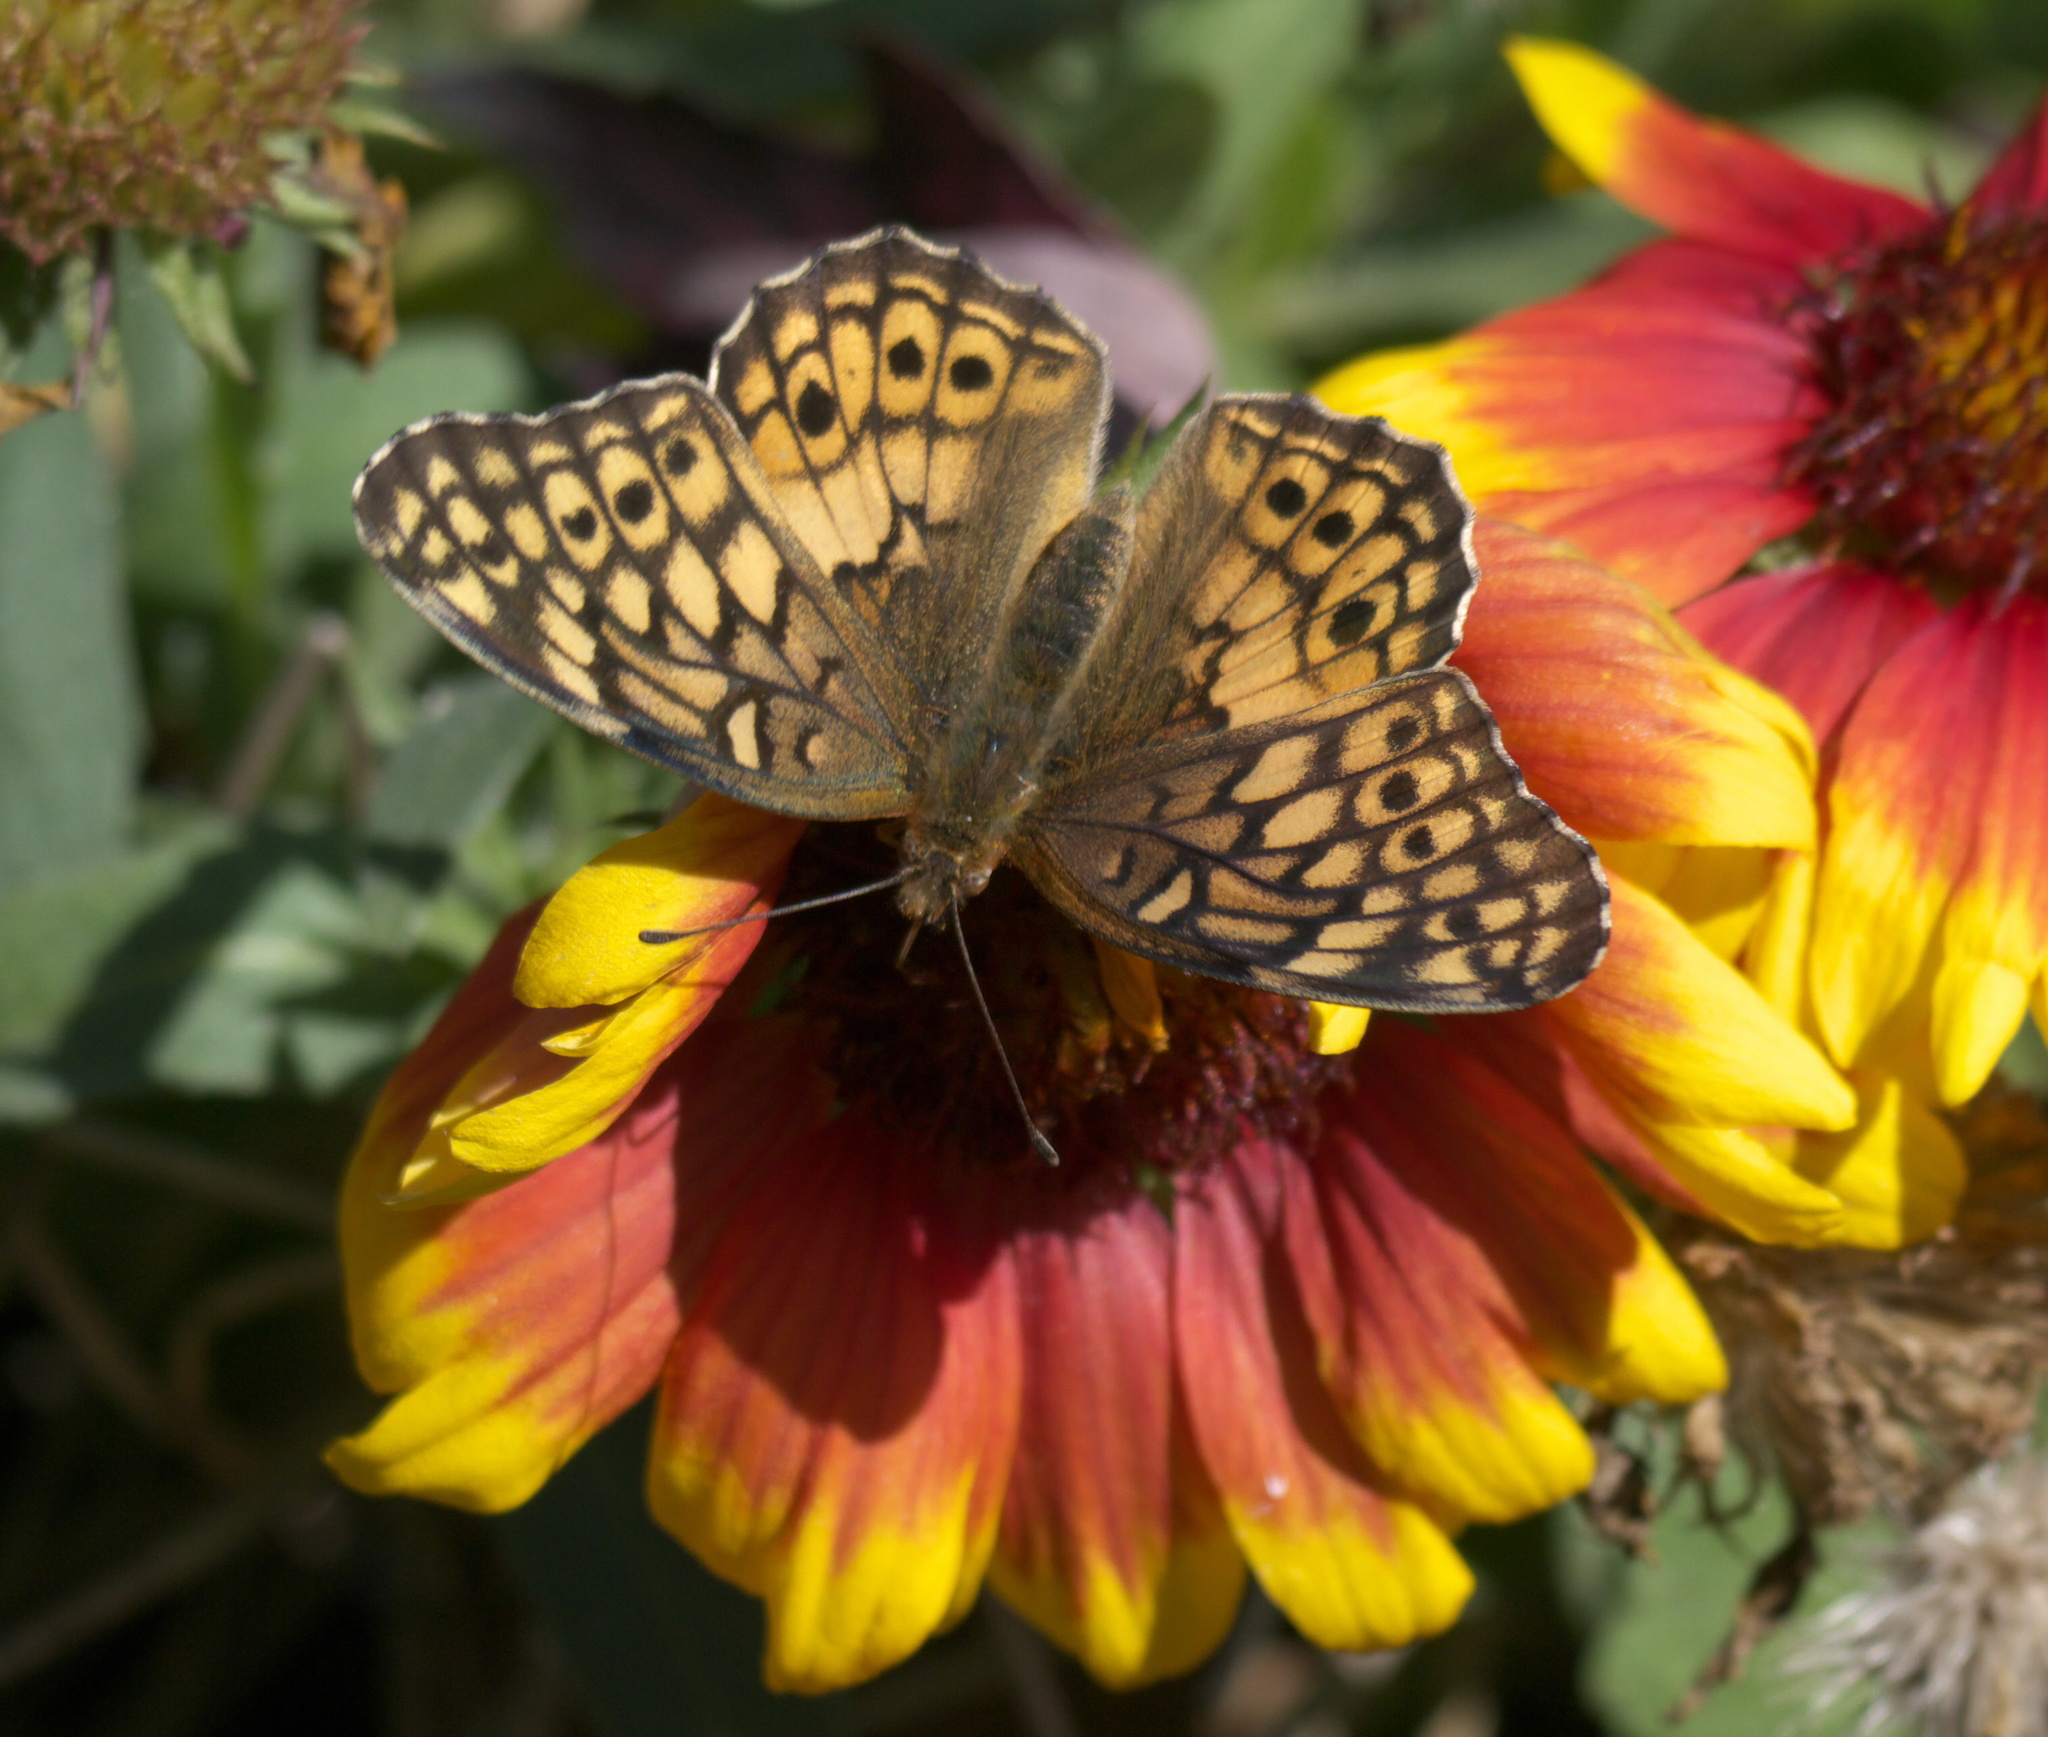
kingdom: Animalia
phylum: Arthropoda
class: Insecta
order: Lepidoptera
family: Nymphalidae
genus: Euptoieta
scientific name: Euptoieta claudia
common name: Variegated fritillary
